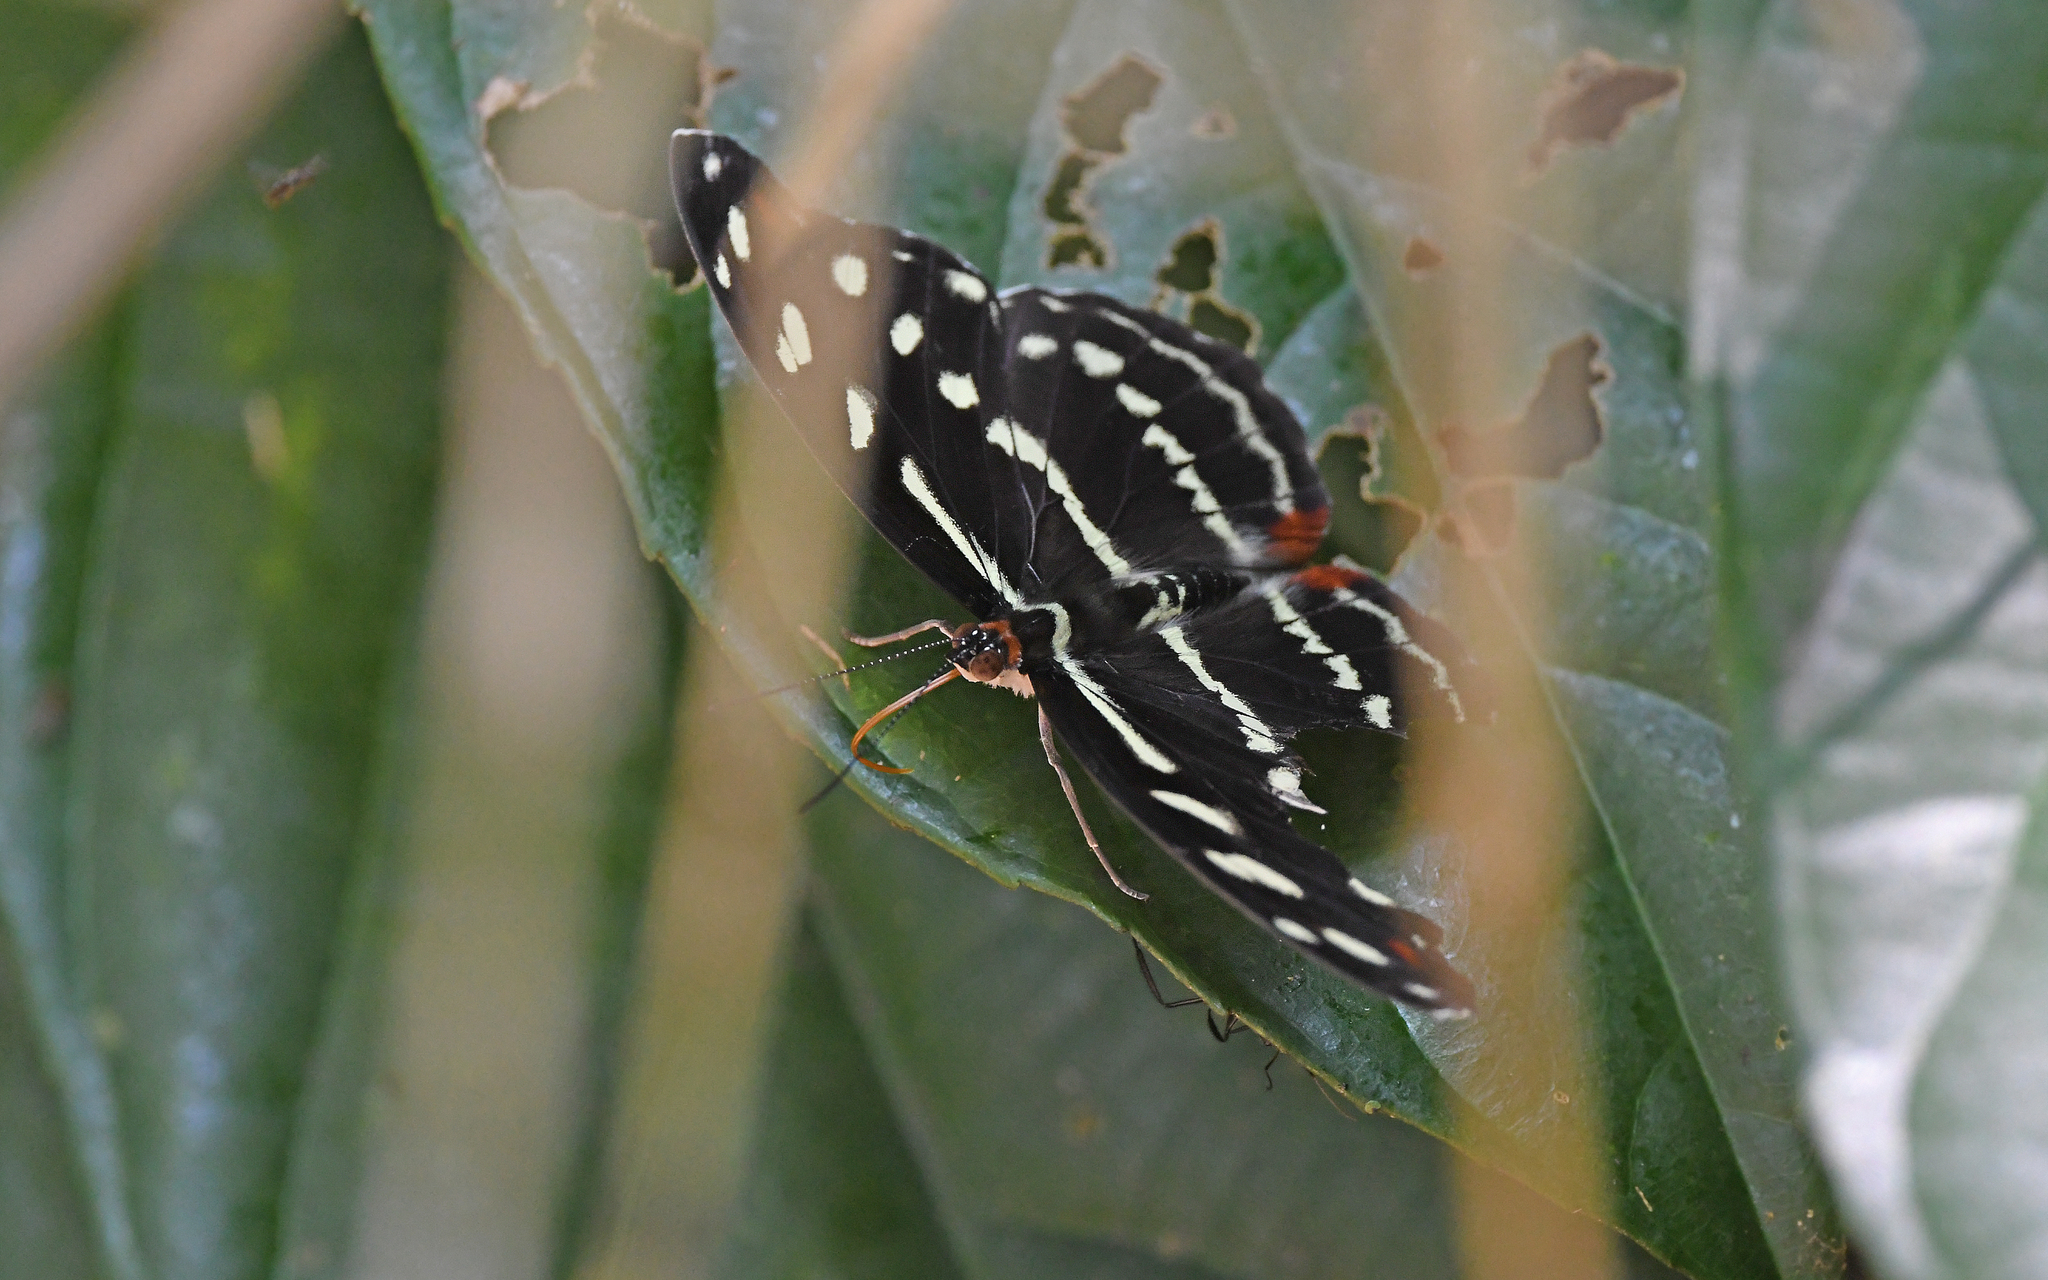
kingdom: Animalia
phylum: Arthropoda
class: Insecta
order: Lepidoptera
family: Nymphalidae
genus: Catonephele
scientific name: Catonephele acontius
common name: Unspotted firewing
